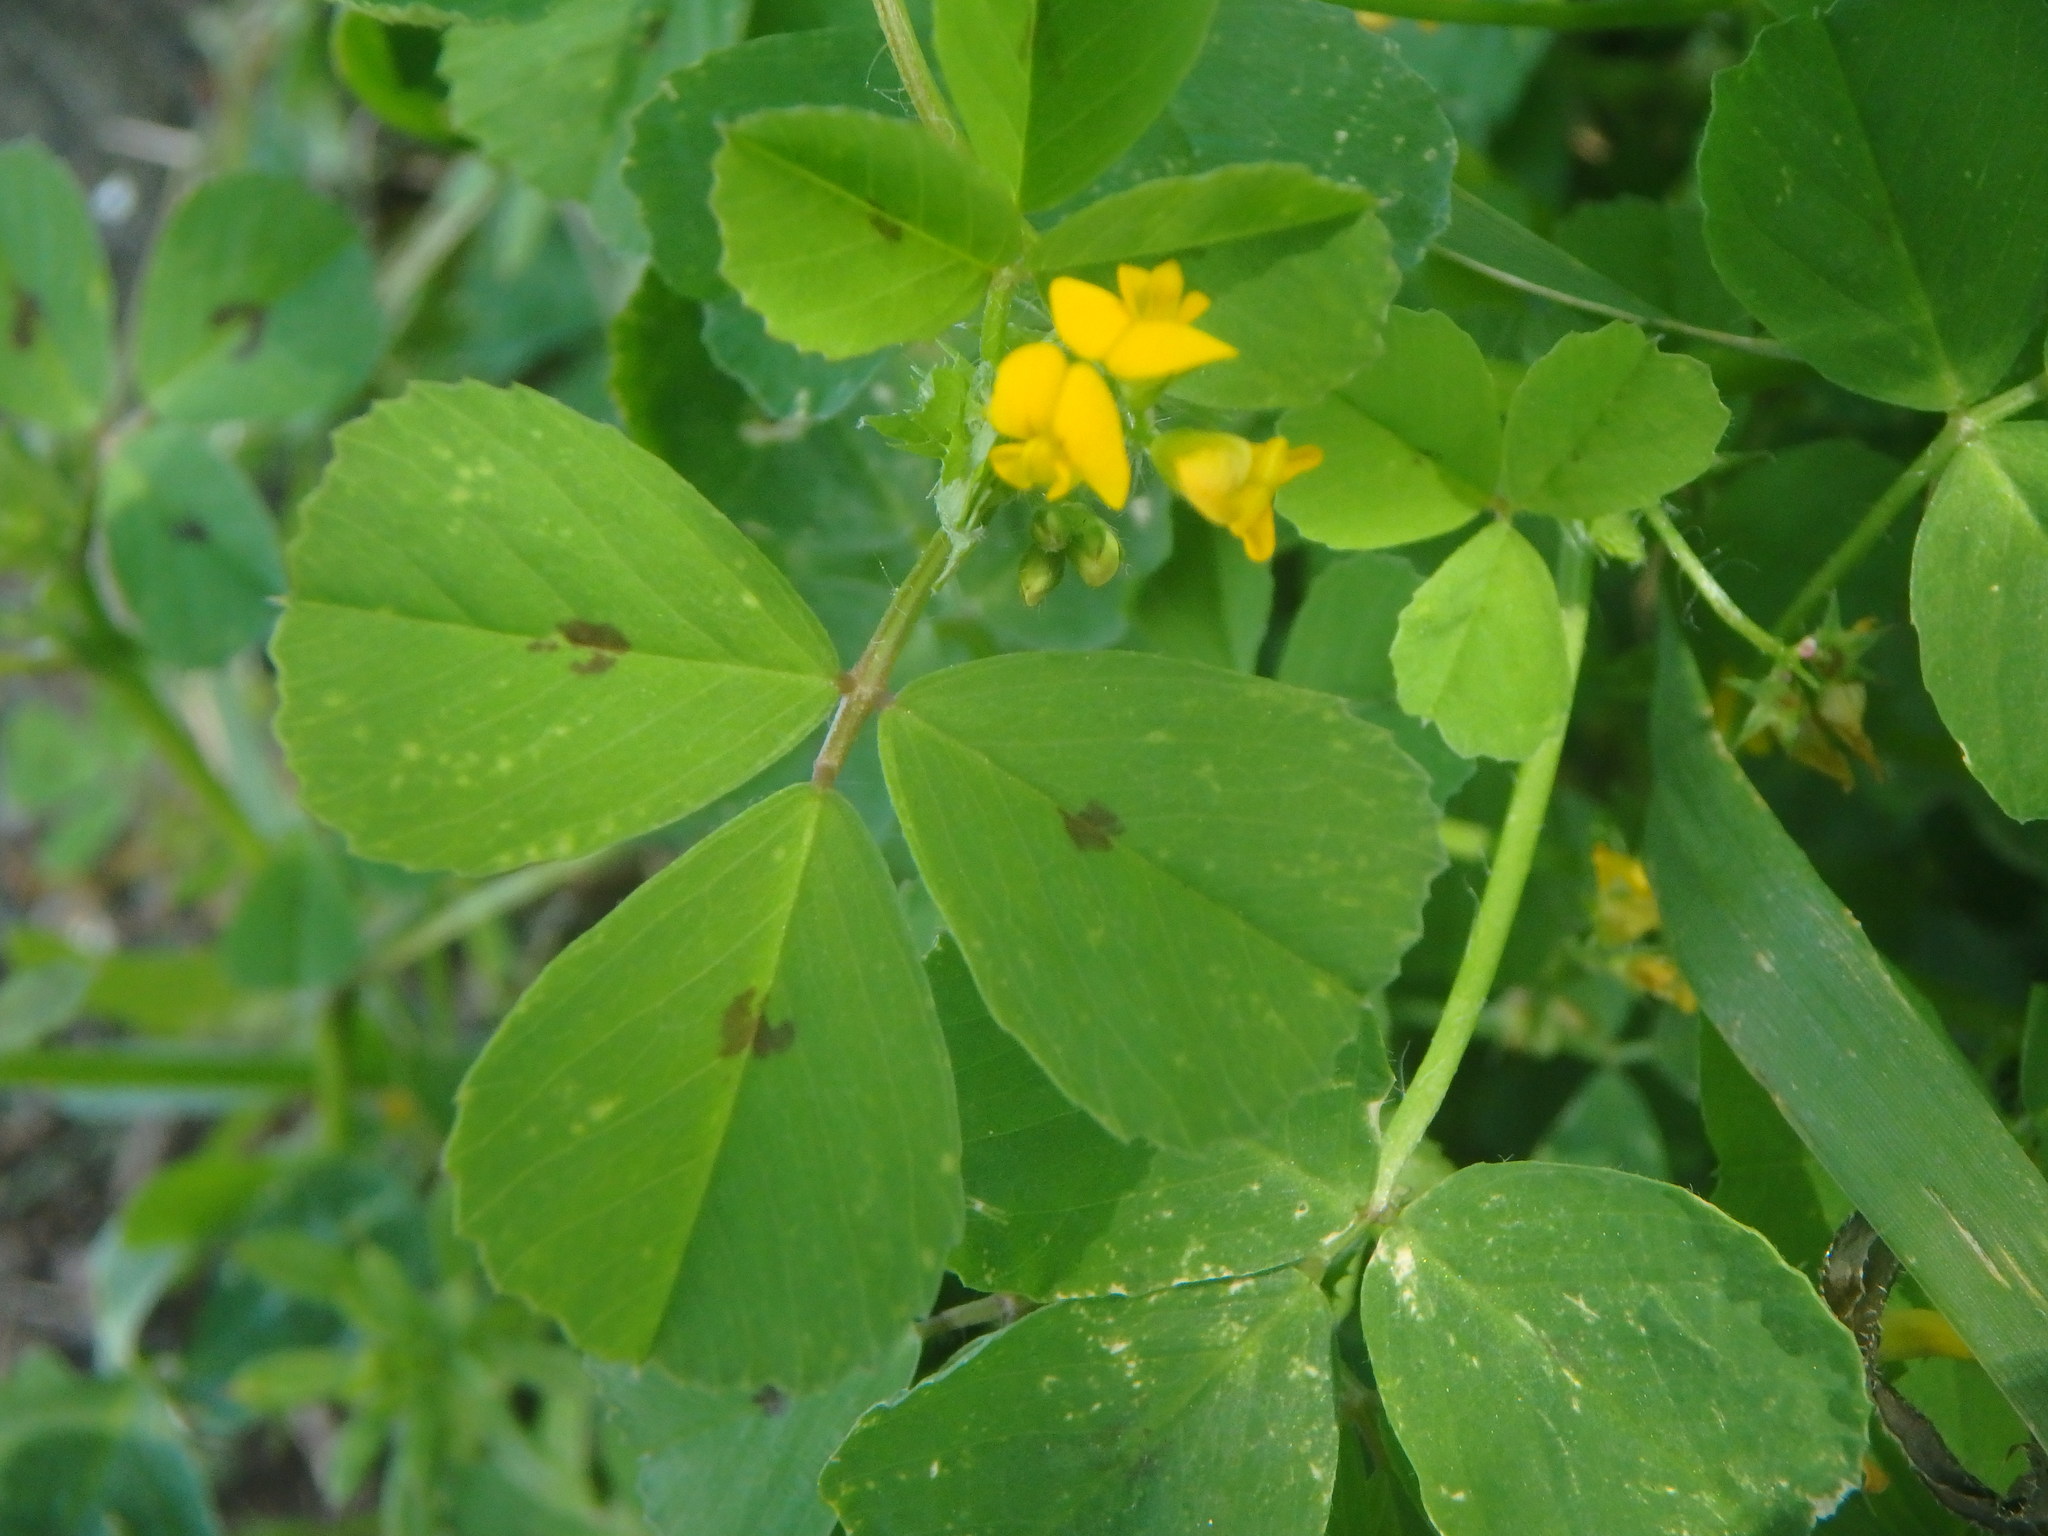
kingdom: Plantae
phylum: Tracheophyta
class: Magnoliopsida
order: Fabales
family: Fabaceae
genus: Medicago
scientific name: Medicago arabica
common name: Spotted medick
